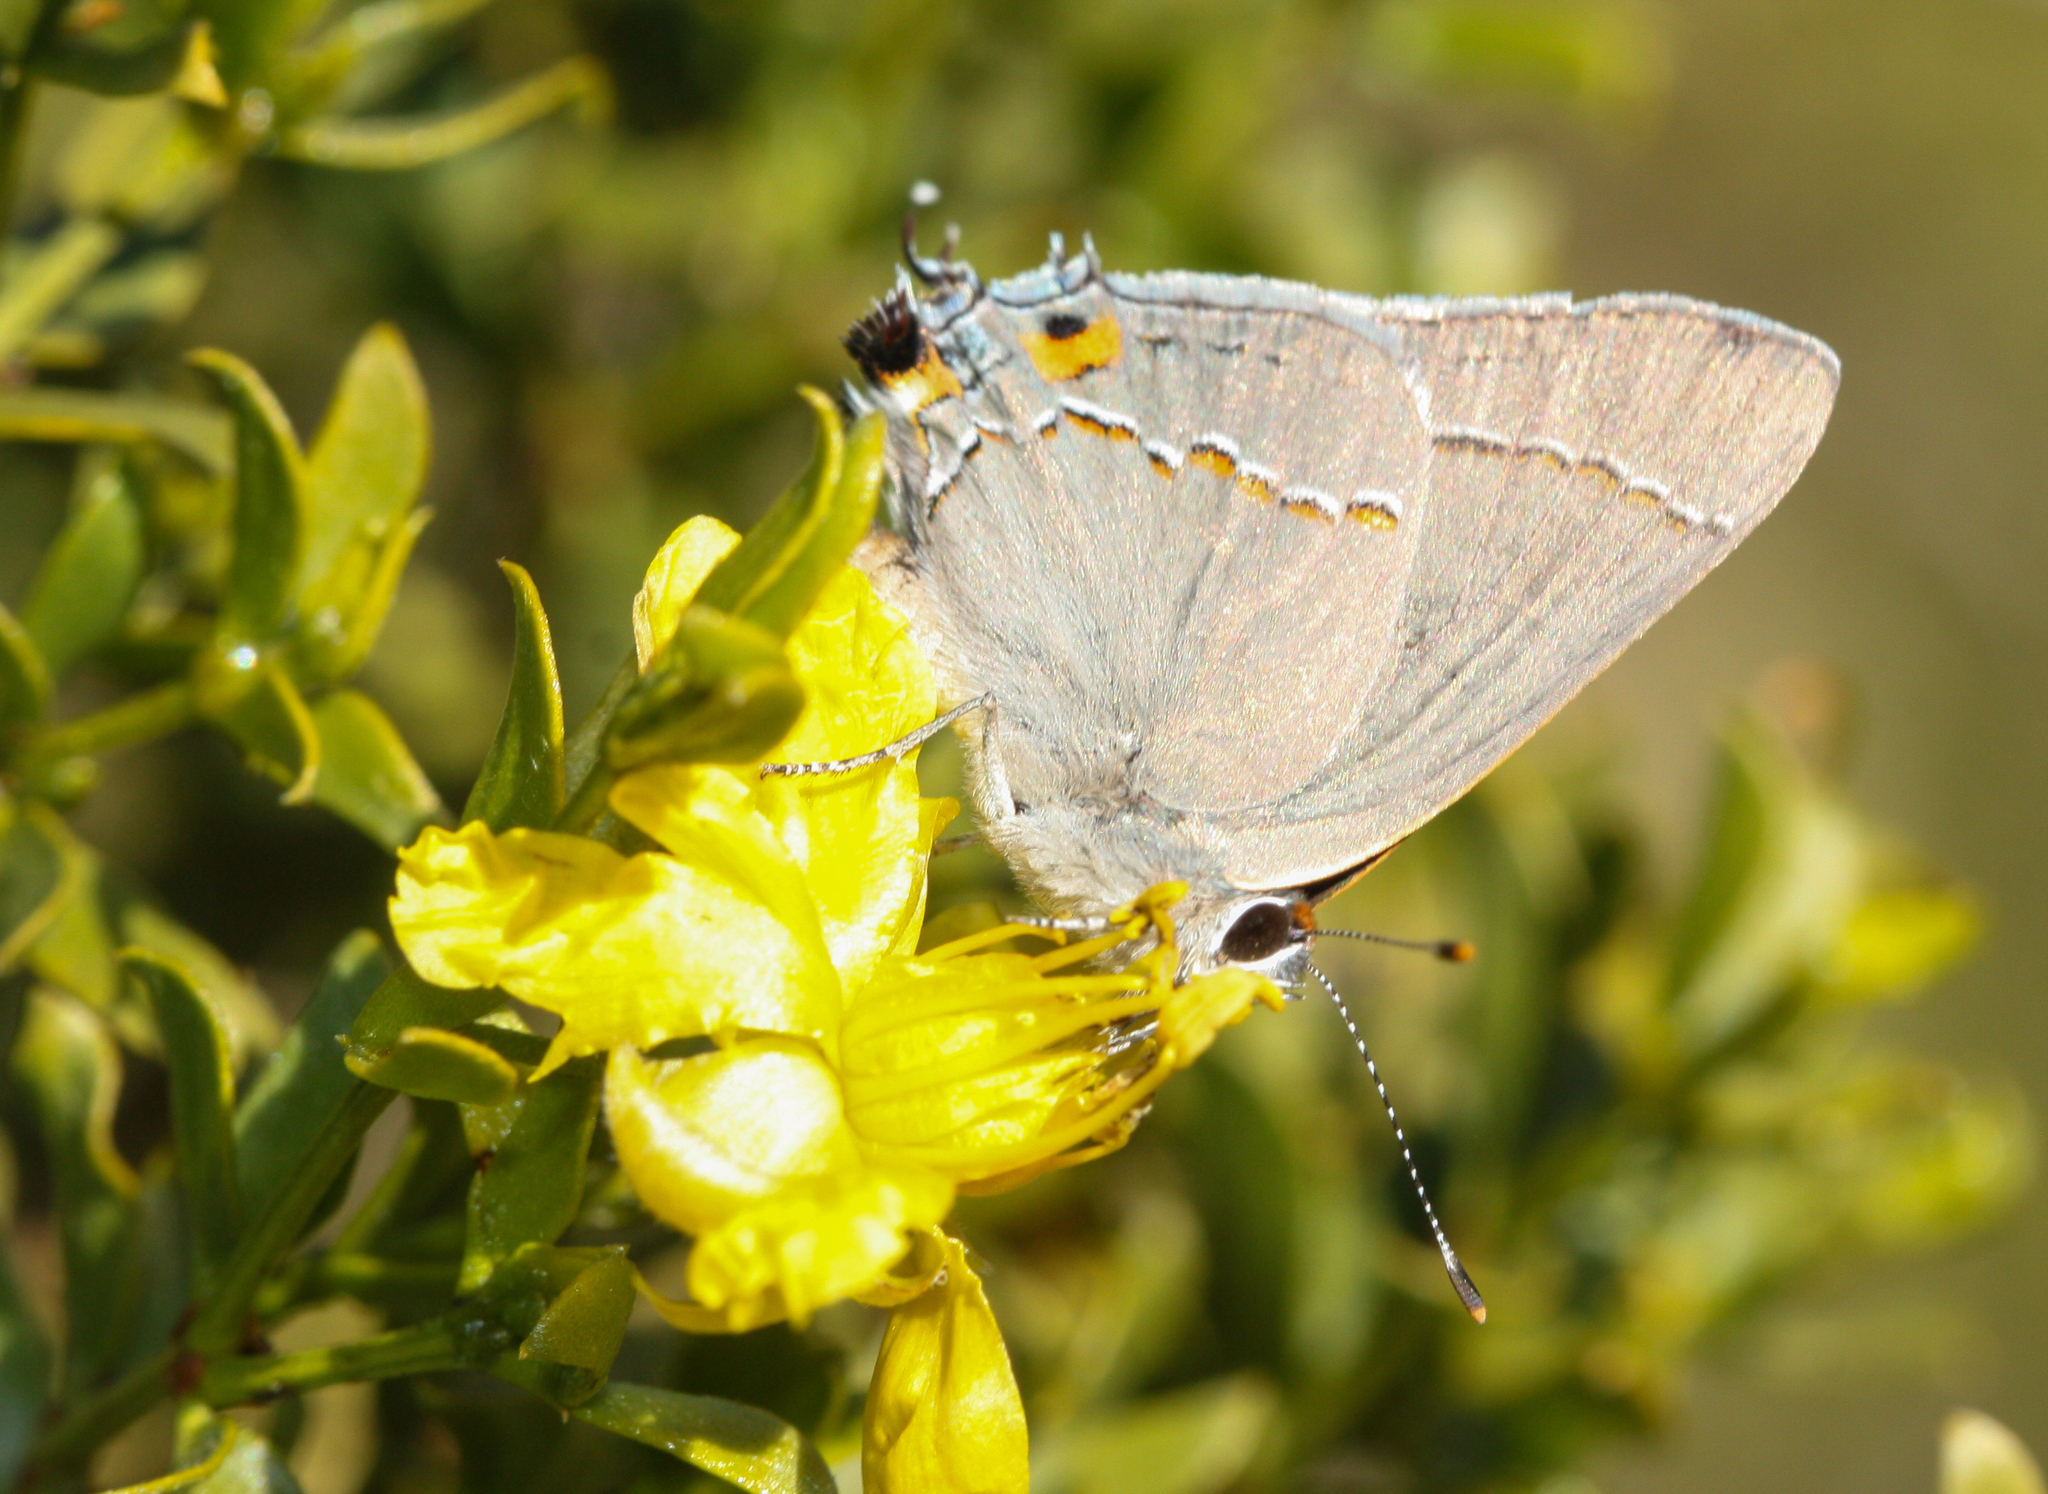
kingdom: Animalia
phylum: Arthropoda
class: Insecta
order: Lepidoptera
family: Lycaenidae
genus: Strymon
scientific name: Strymon melinus
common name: Gray hairstreak
